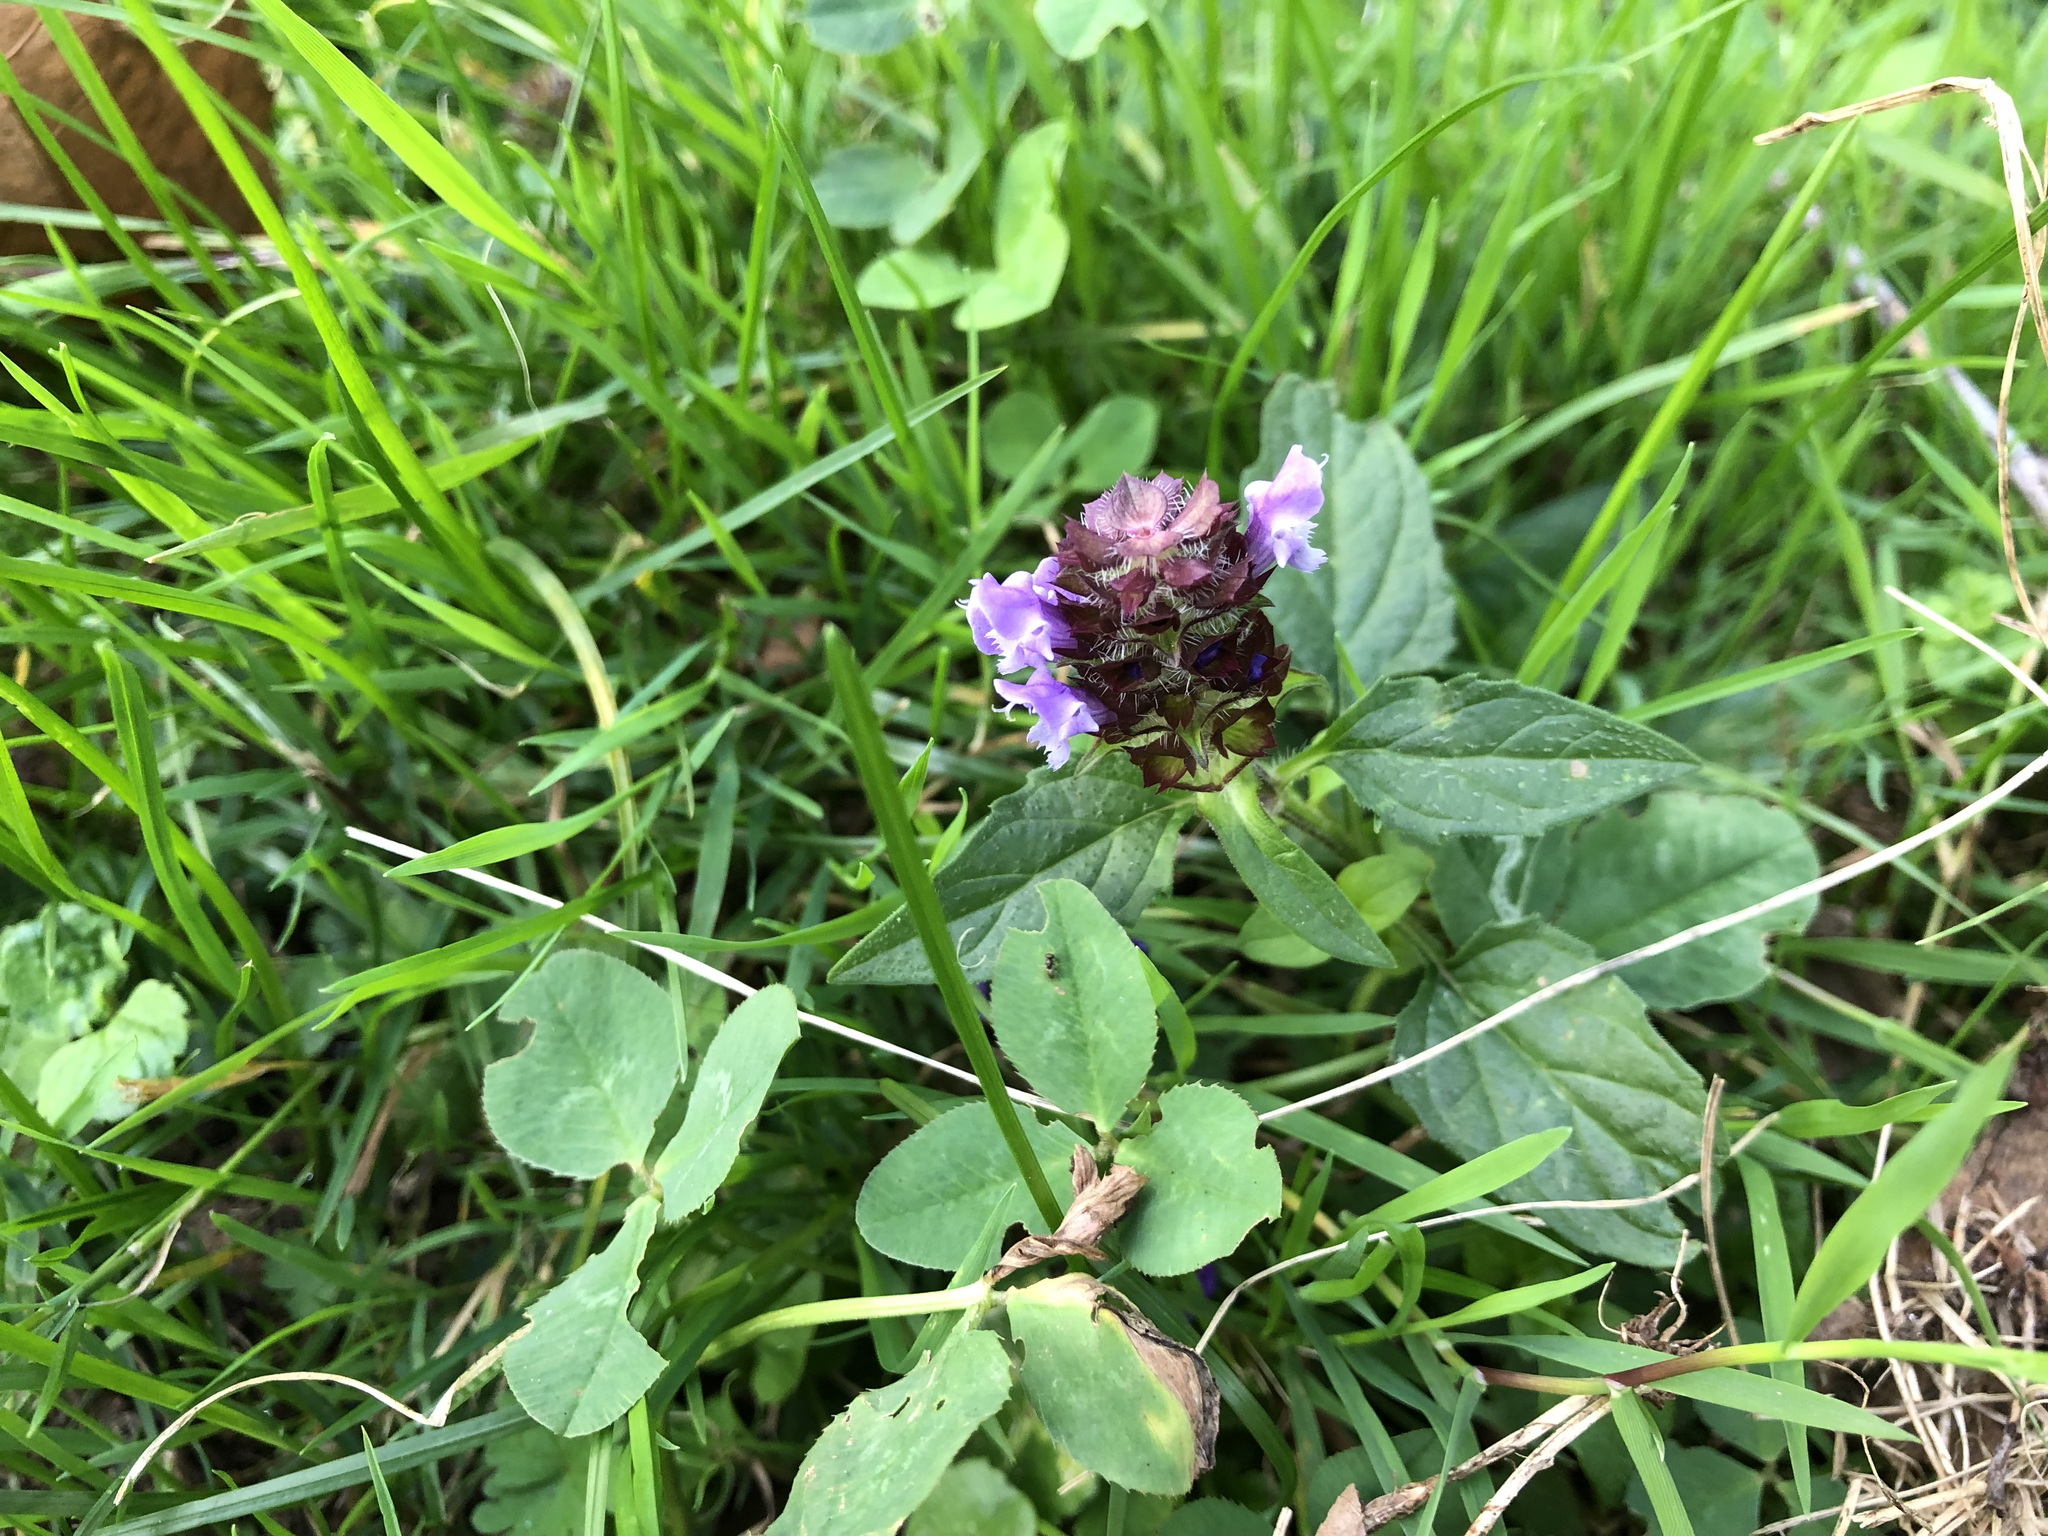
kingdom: Plantae
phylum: Tracheophyta
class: Magnoliopsida
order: Lamiales
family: Lamiaceae
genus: Prunella
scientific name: Prunella vulgaris
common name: Heal-all
